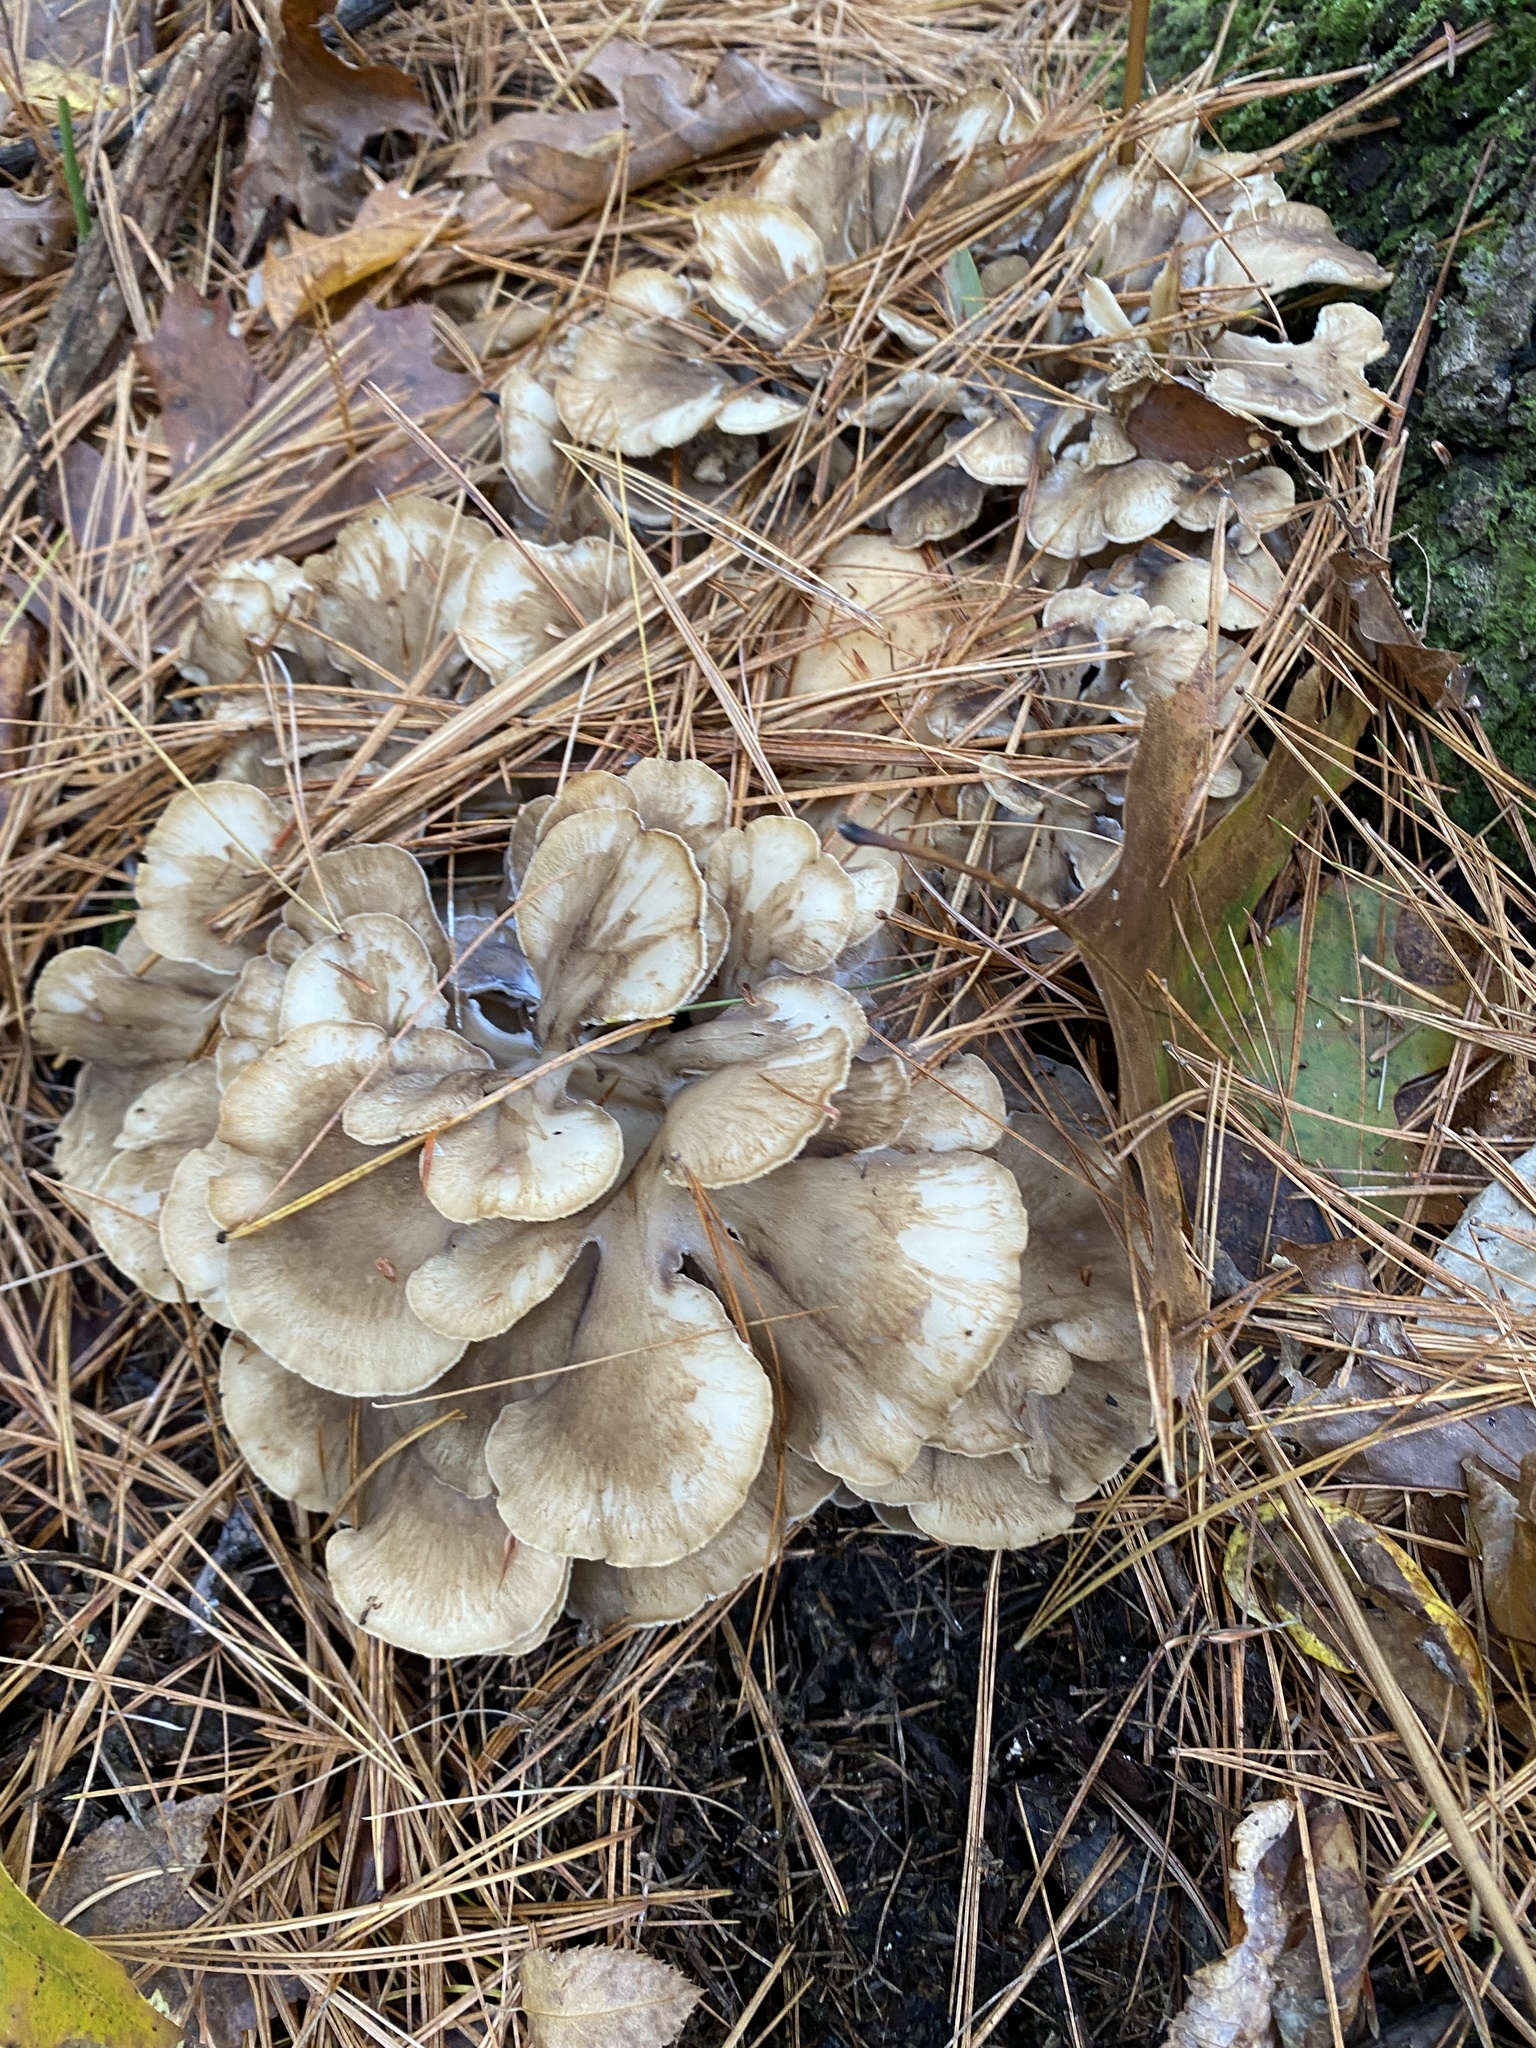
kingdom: Fungi
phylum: Basidiomycota
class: Agaricomycetes
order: Polyporales
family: Grifolaceae
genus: Grifola
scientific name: Grifola frondosa
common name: Hen of the woods
